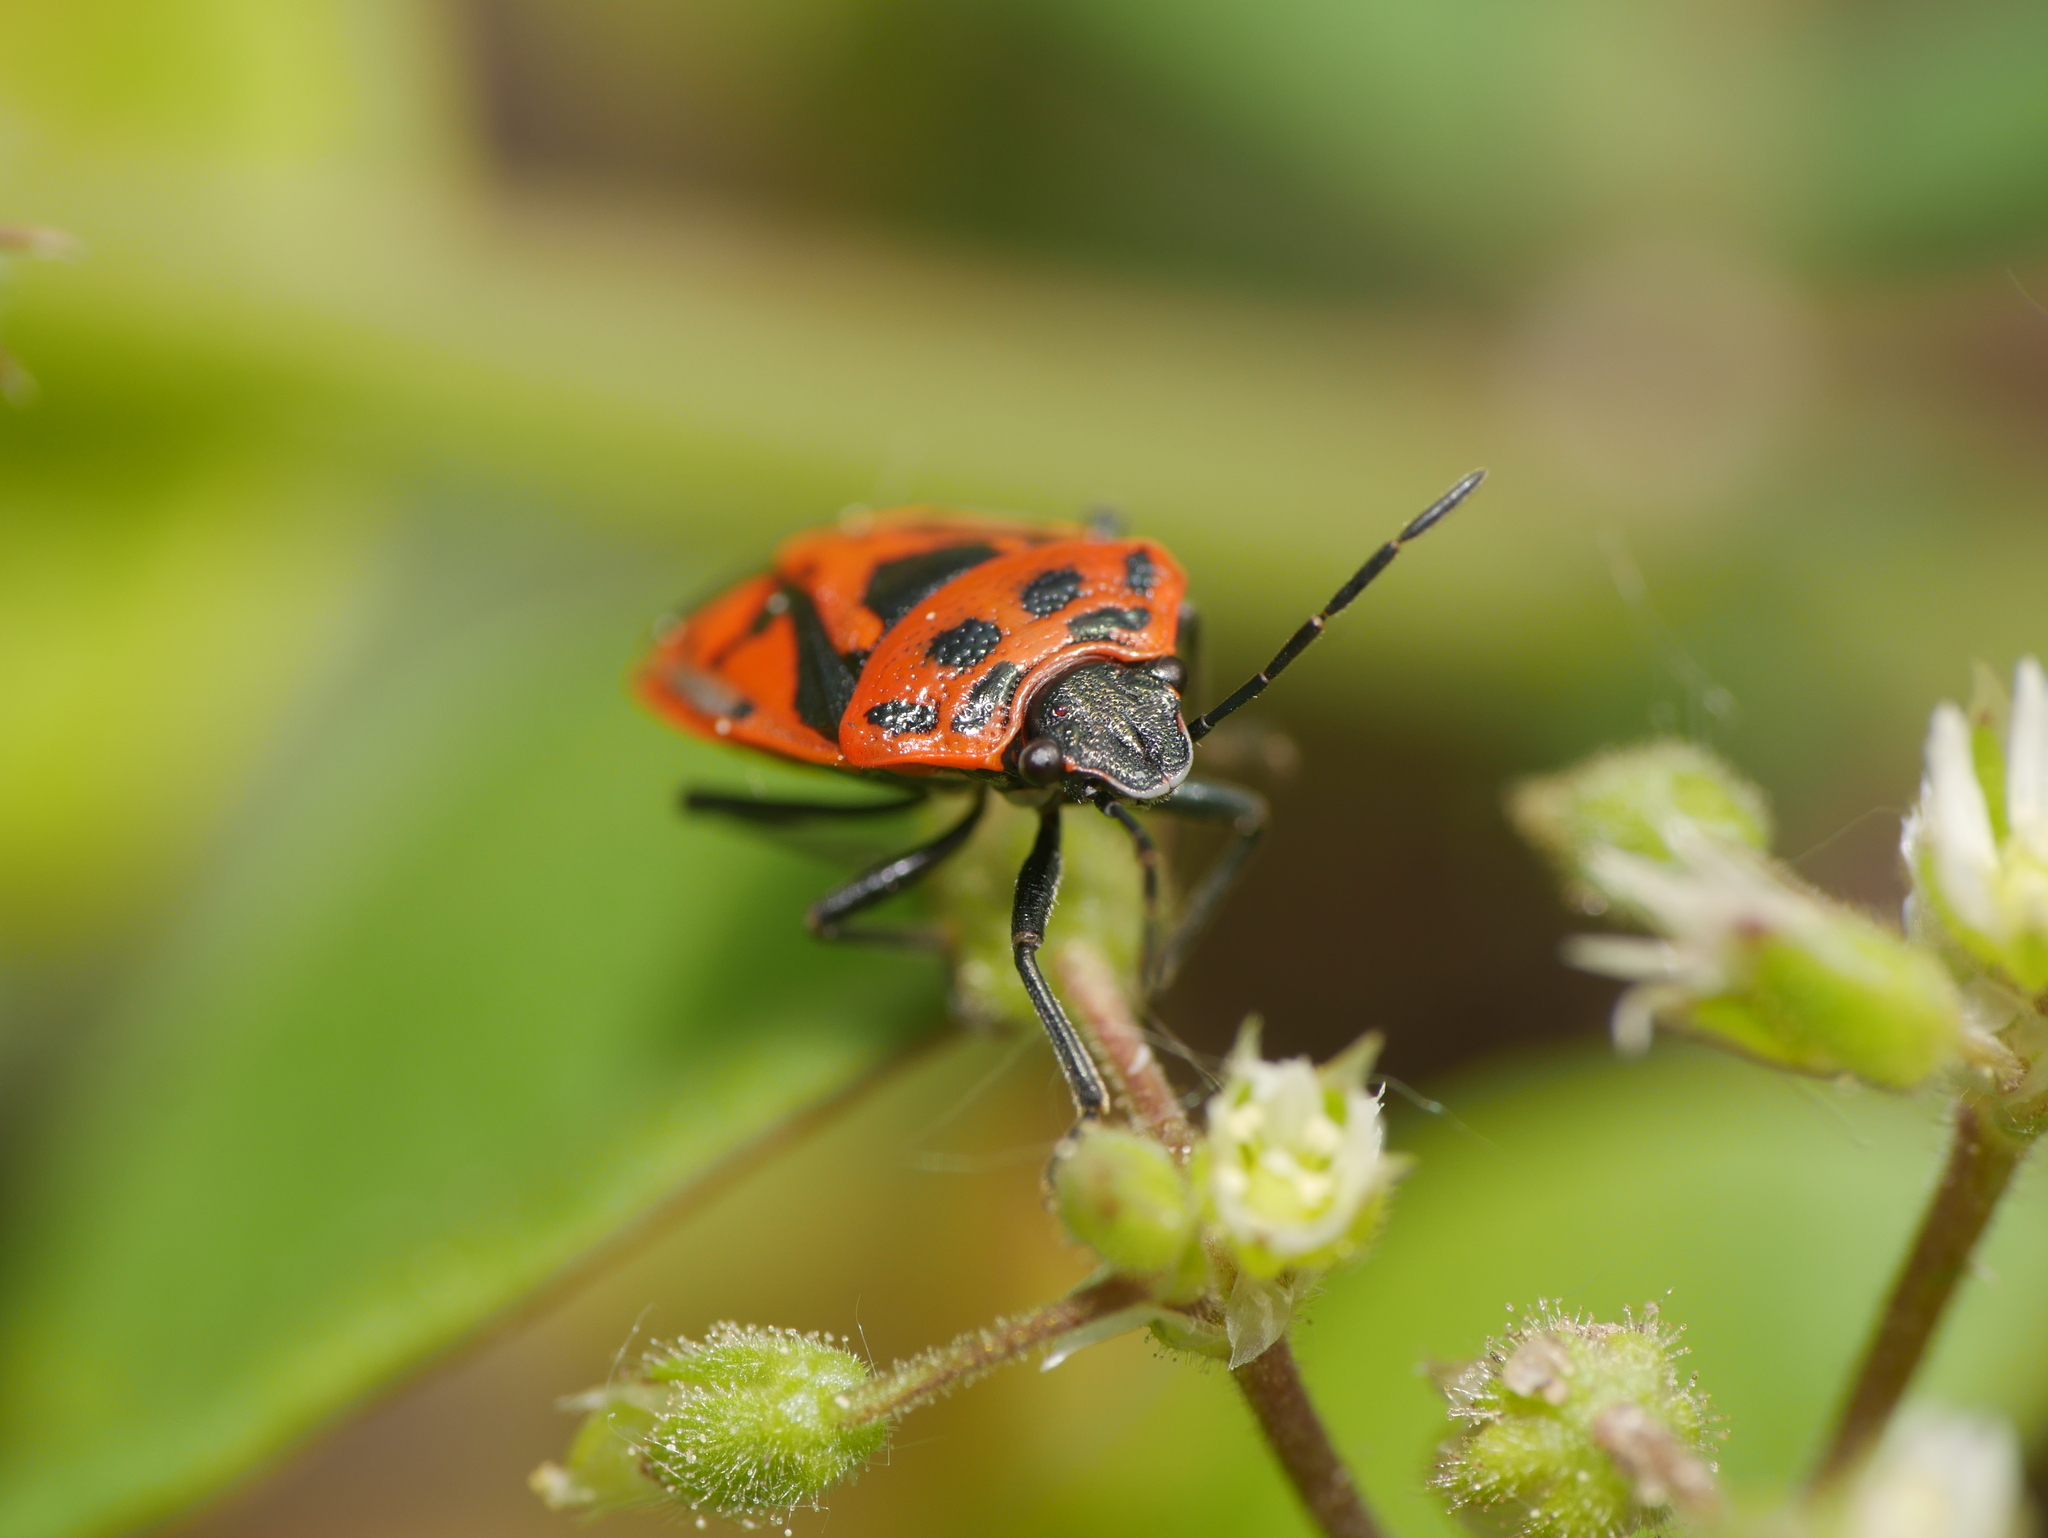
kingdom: Animalia
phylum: Arthropoda
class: Insecta
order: Hemiptera
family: Pentatomidae
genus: Eurydema
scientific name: Eurydema ornata
